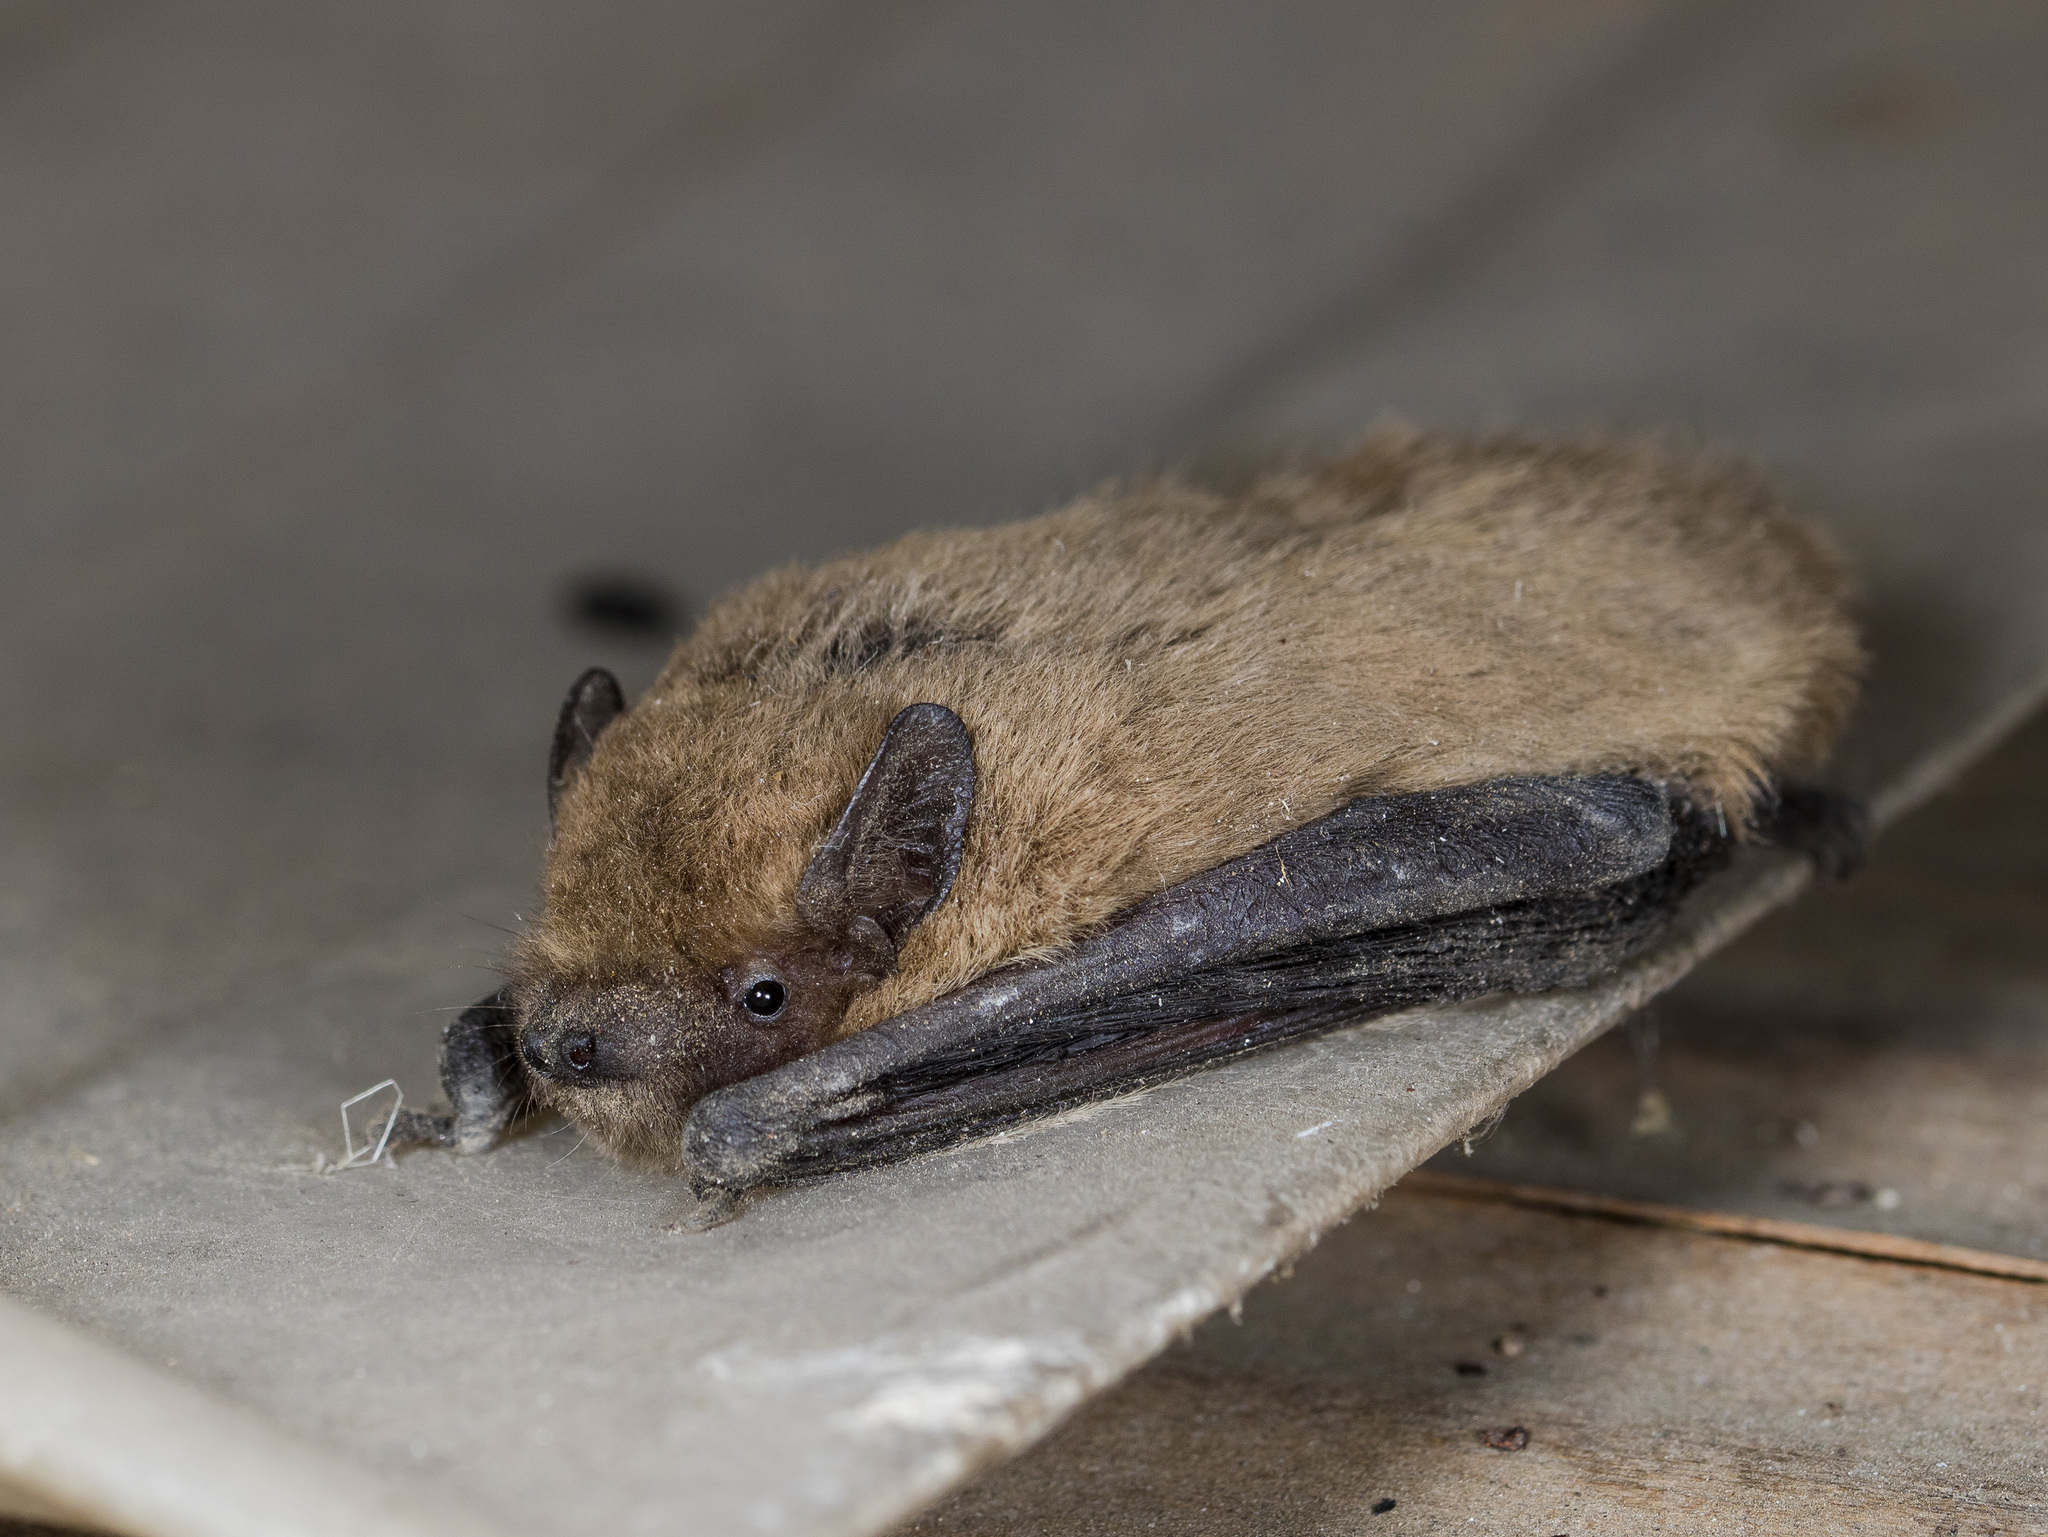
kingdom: Animalia
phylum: Chordata
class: Mammalia
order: Chiroptera
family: Vespertilionidae
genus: Pipistrellus
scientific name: Pipistrellus pipistrellus
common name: Common pipistrelle
